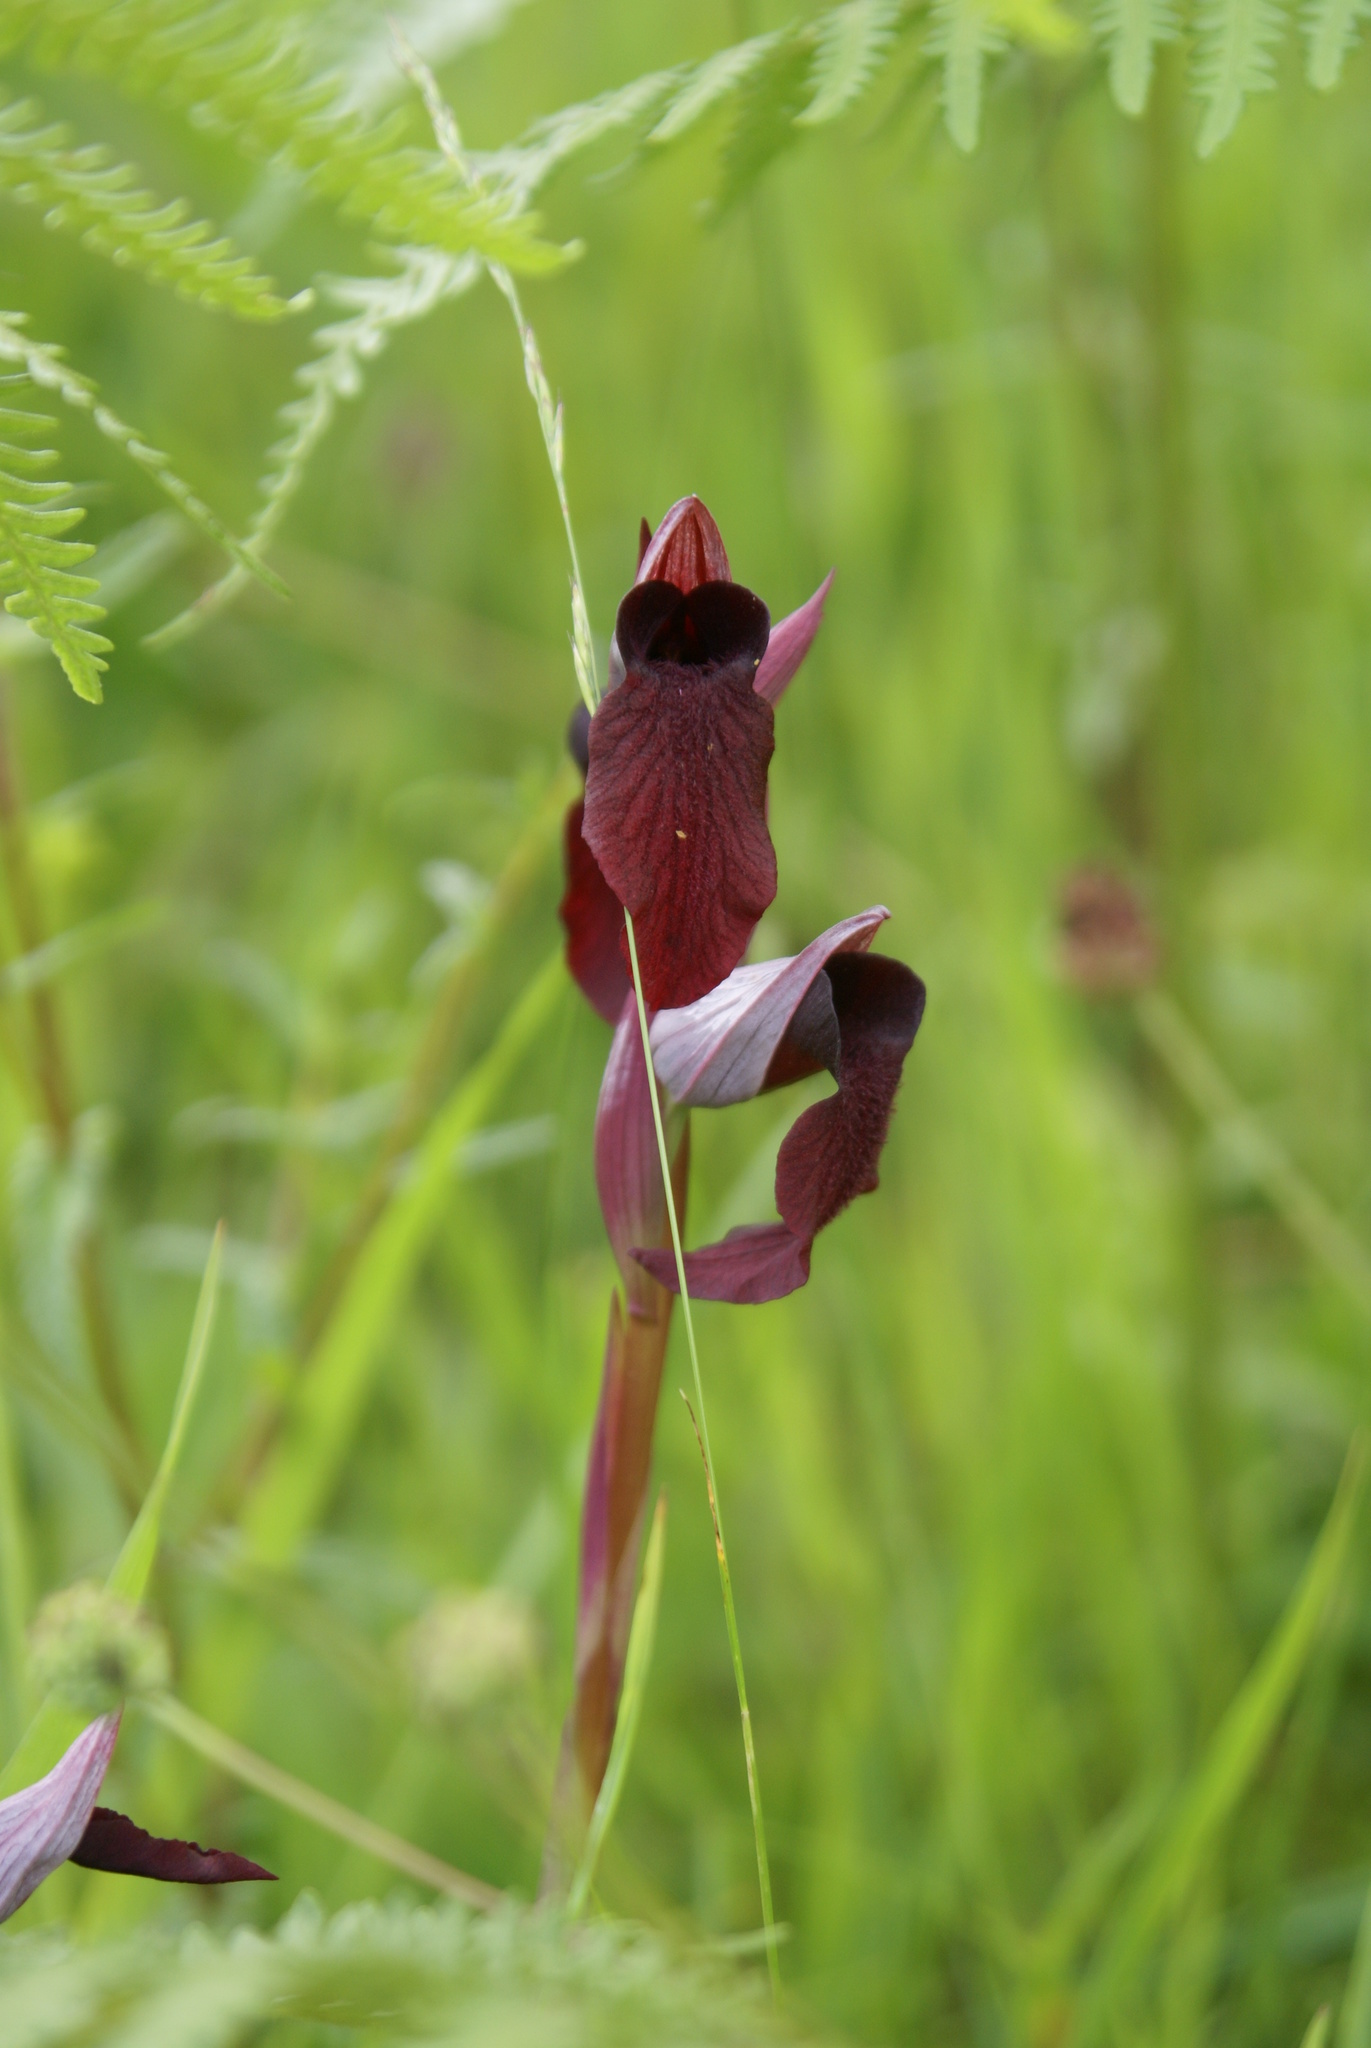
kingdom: Plantae
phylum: Tracheophyta
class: Liliopsida
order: Asparagales
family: Orchidaceae
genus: Serapias
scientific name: Serapias cordigera
